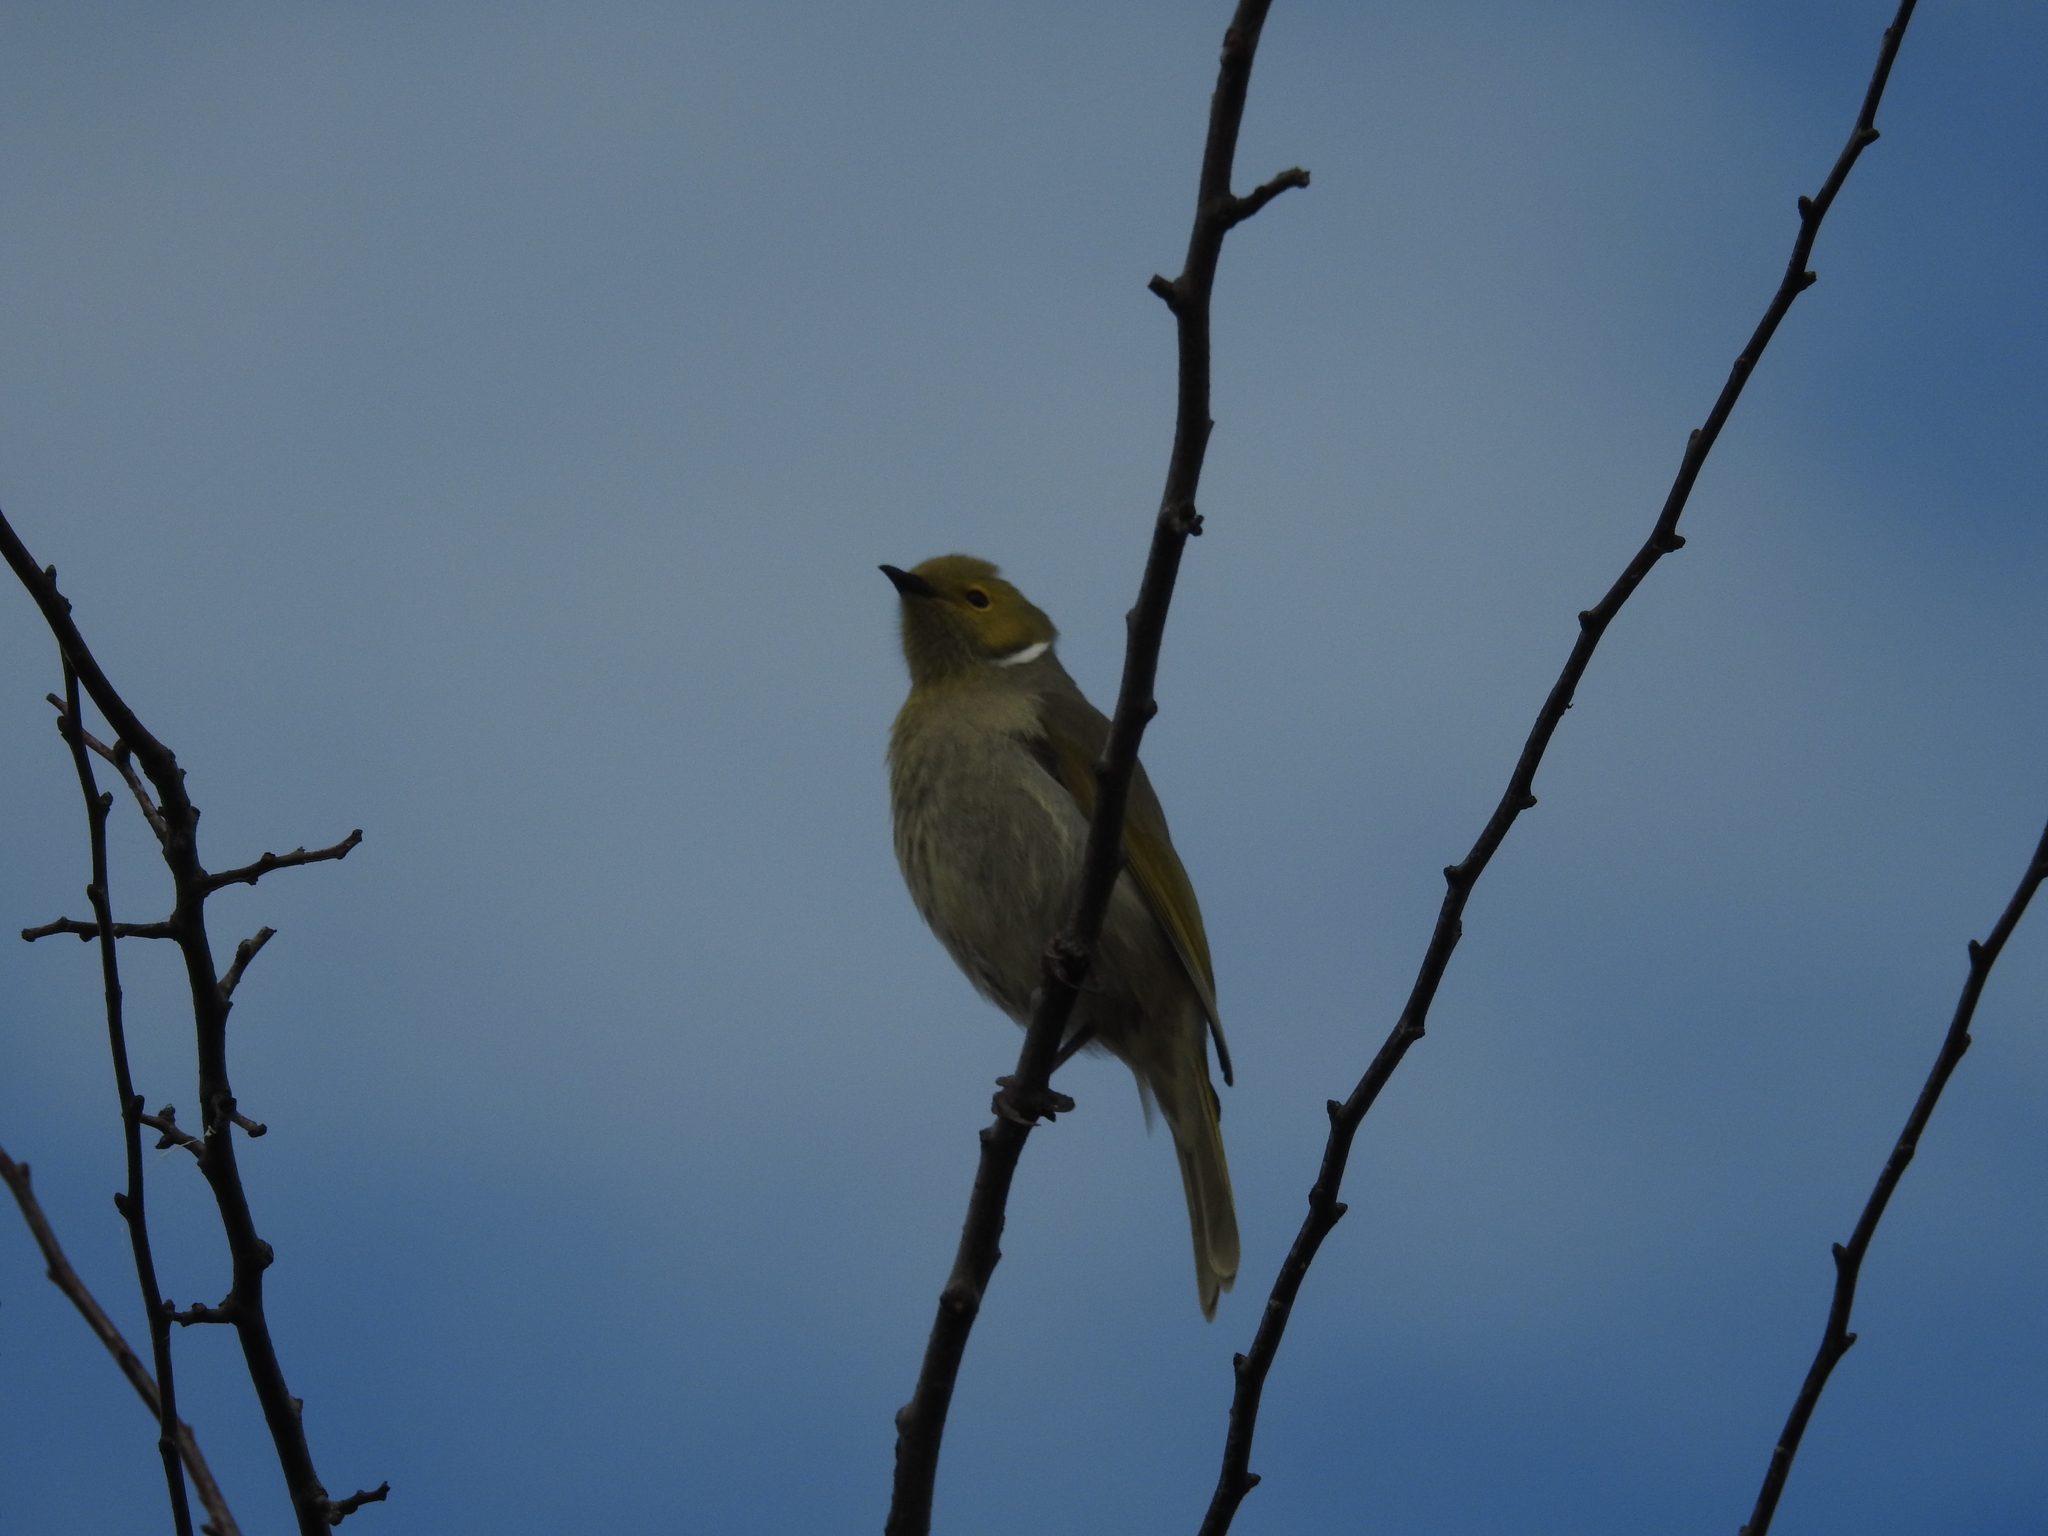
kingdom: Animalia
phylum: Chordata
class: Aves
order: Passeriformes
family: Meliphagidae
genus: Ptilotula
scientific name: Ptilotula penicillata
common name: White-plumed honeyeater
